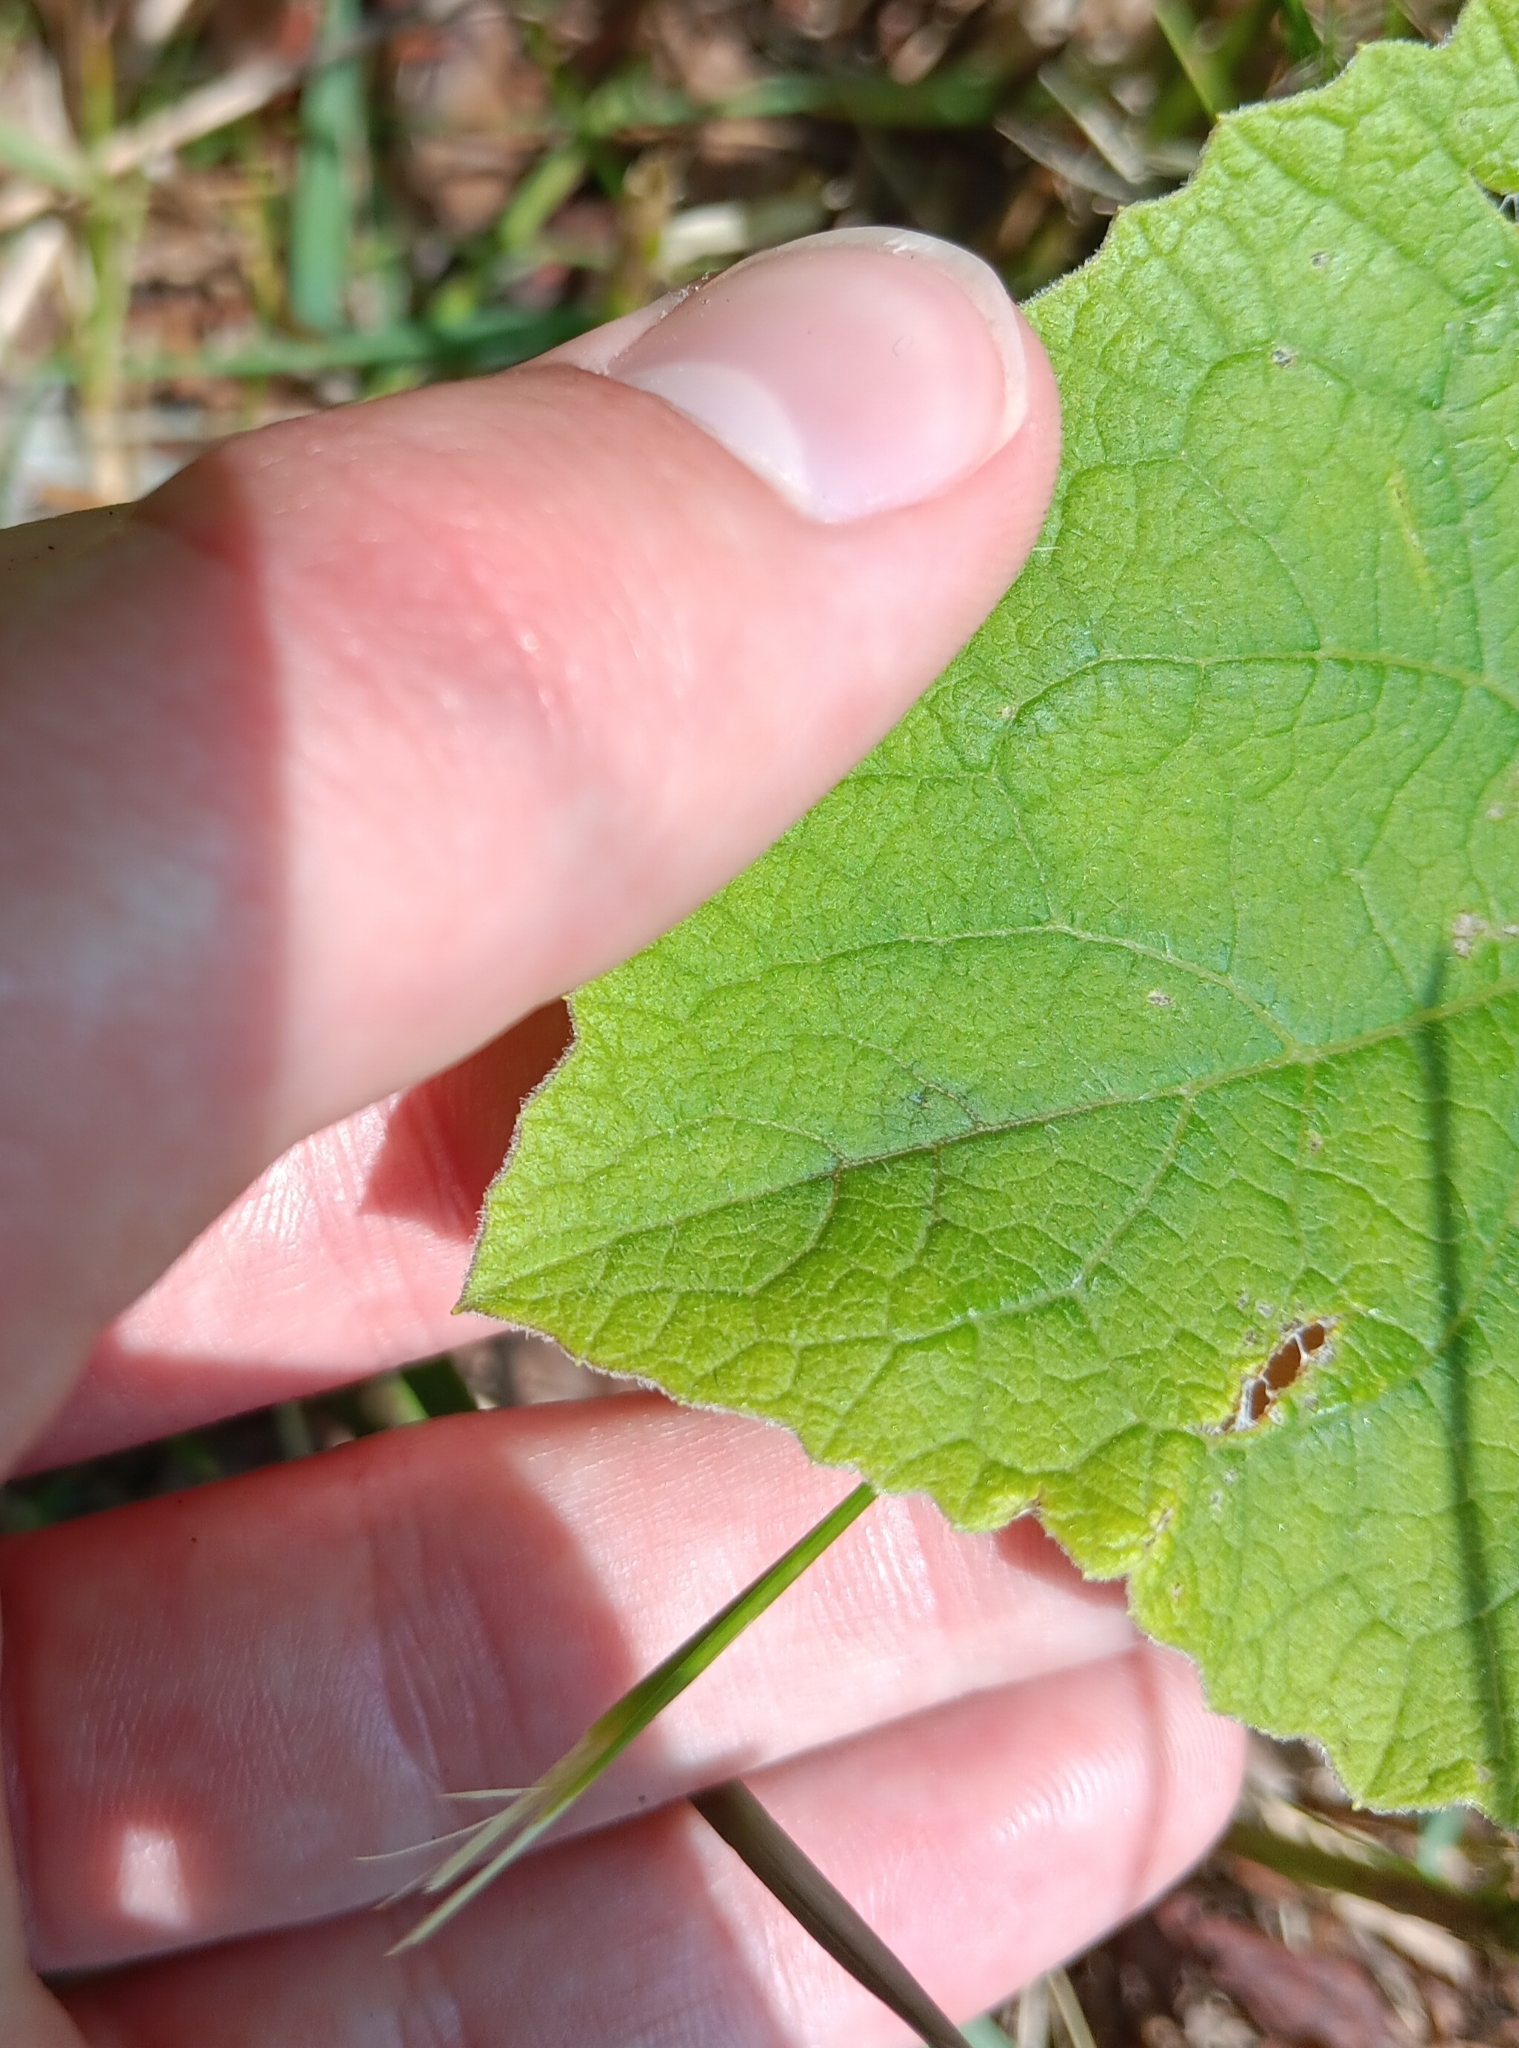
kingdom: Plantae
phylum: Tracheophyta
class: Magnoliopsida
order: Asterales
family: Asteraceae
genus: Arctium
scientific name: Arctium minus
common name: Lesser burdock
